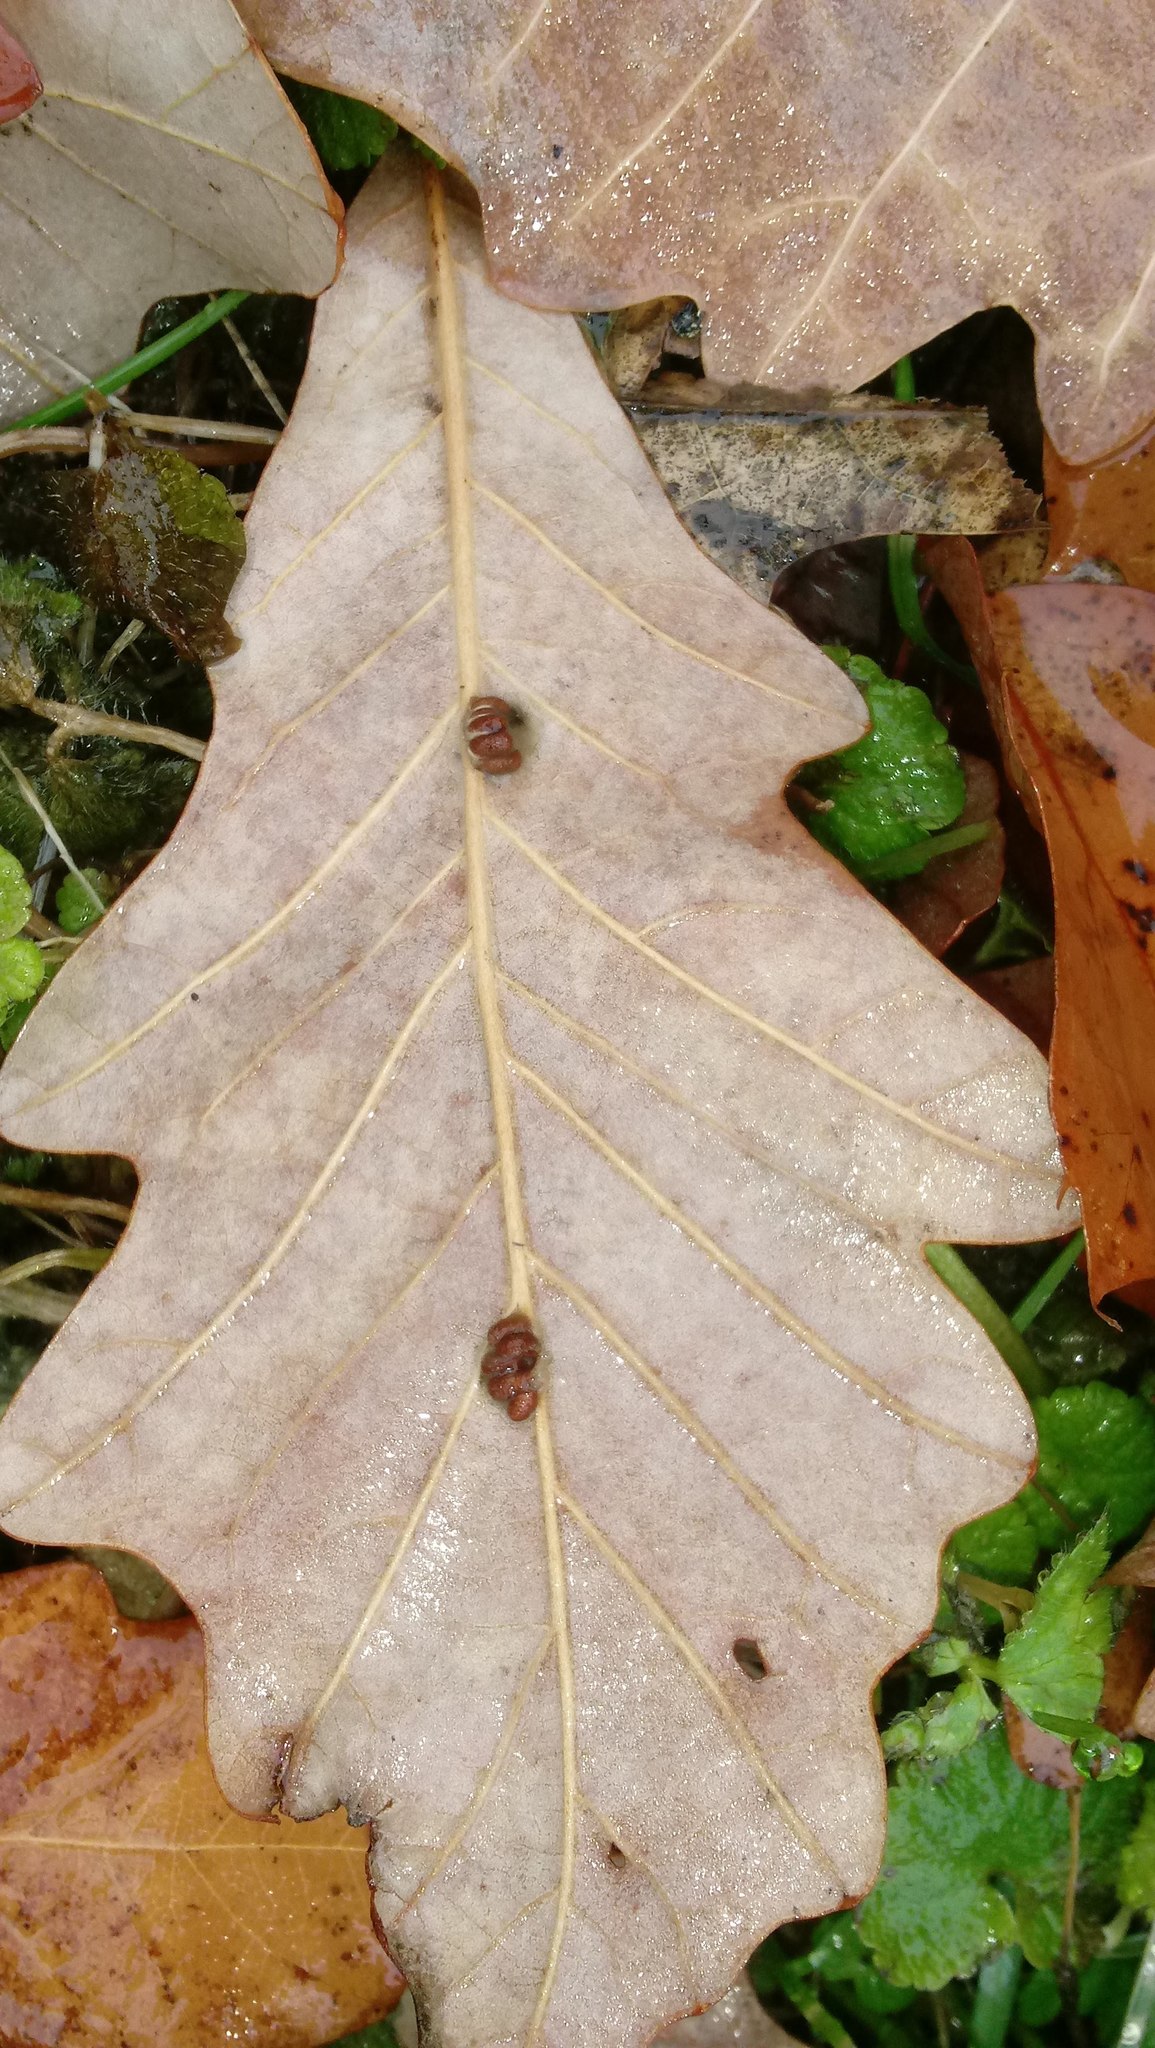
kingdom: Animalia
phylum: Arthropoda
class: Insecta
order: Hymenoptera
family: Cynipidae
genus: Andricus
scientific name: Andricus Druon ignotum
